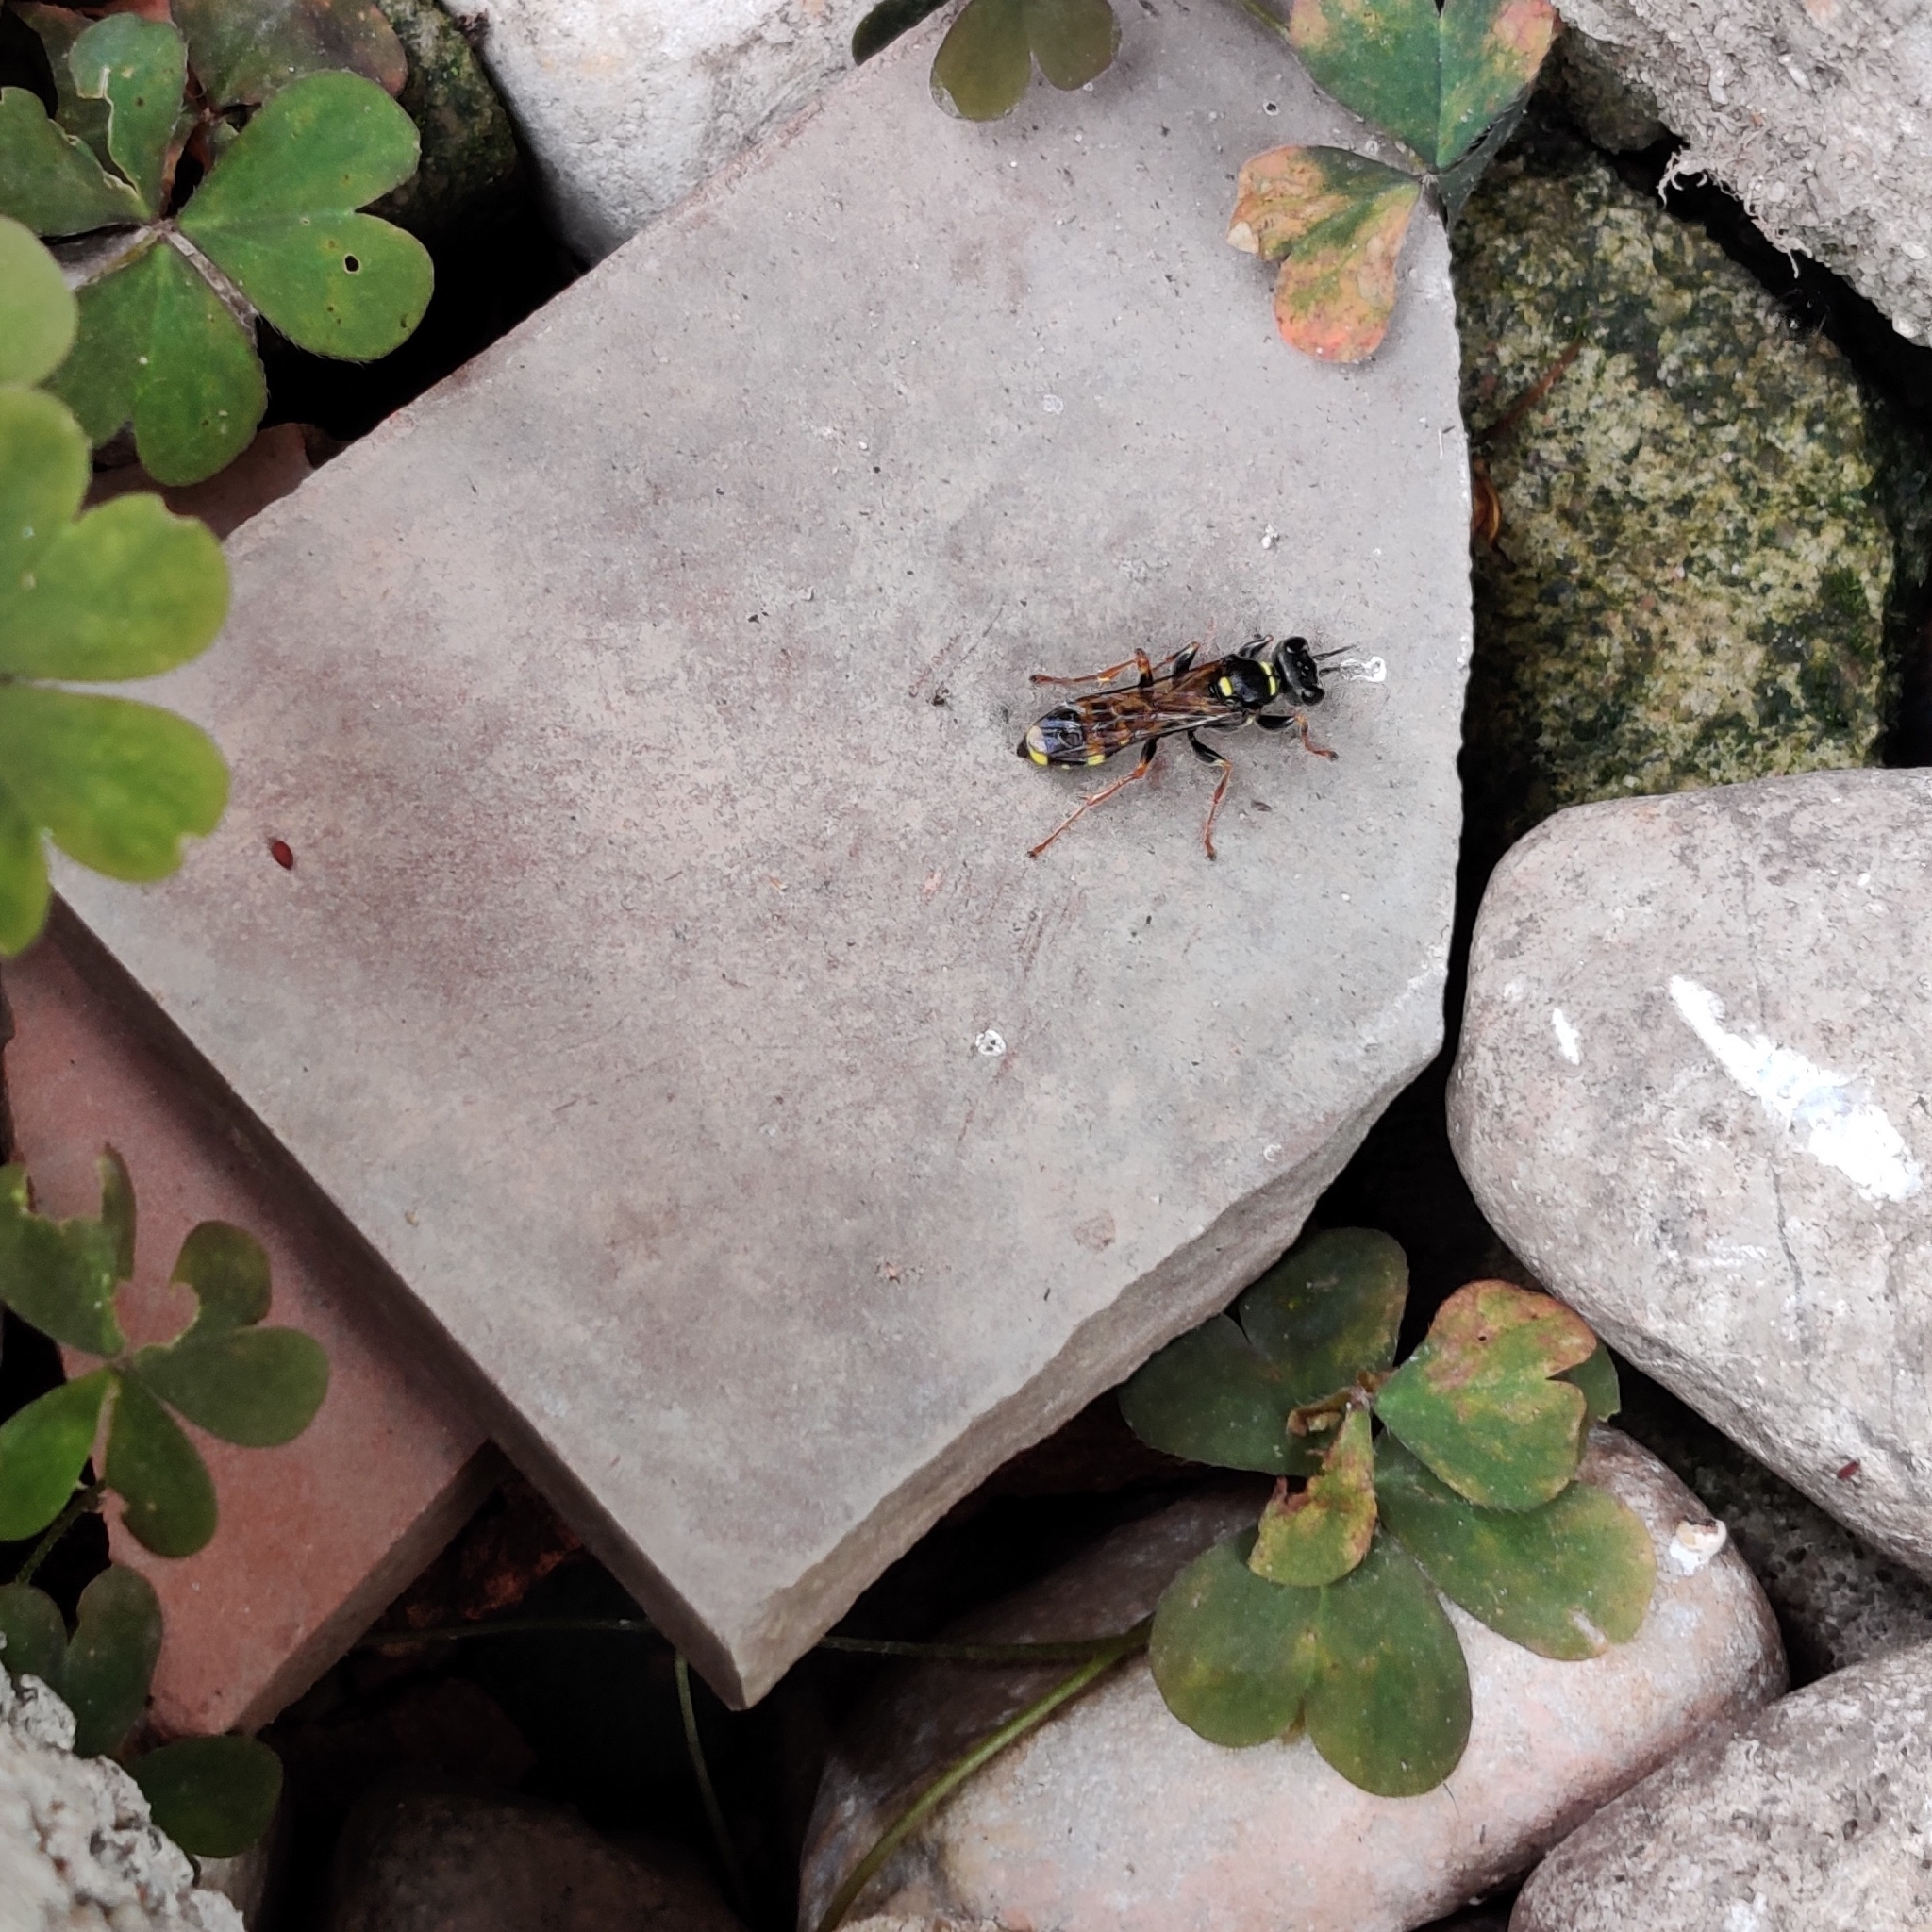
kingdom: Animalia
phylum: Arthropoda
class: Insecta
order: Hymenoptera
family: Crabronidae
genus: Mellinus
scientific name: Mellinus arvensis
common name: Field digger wasp
